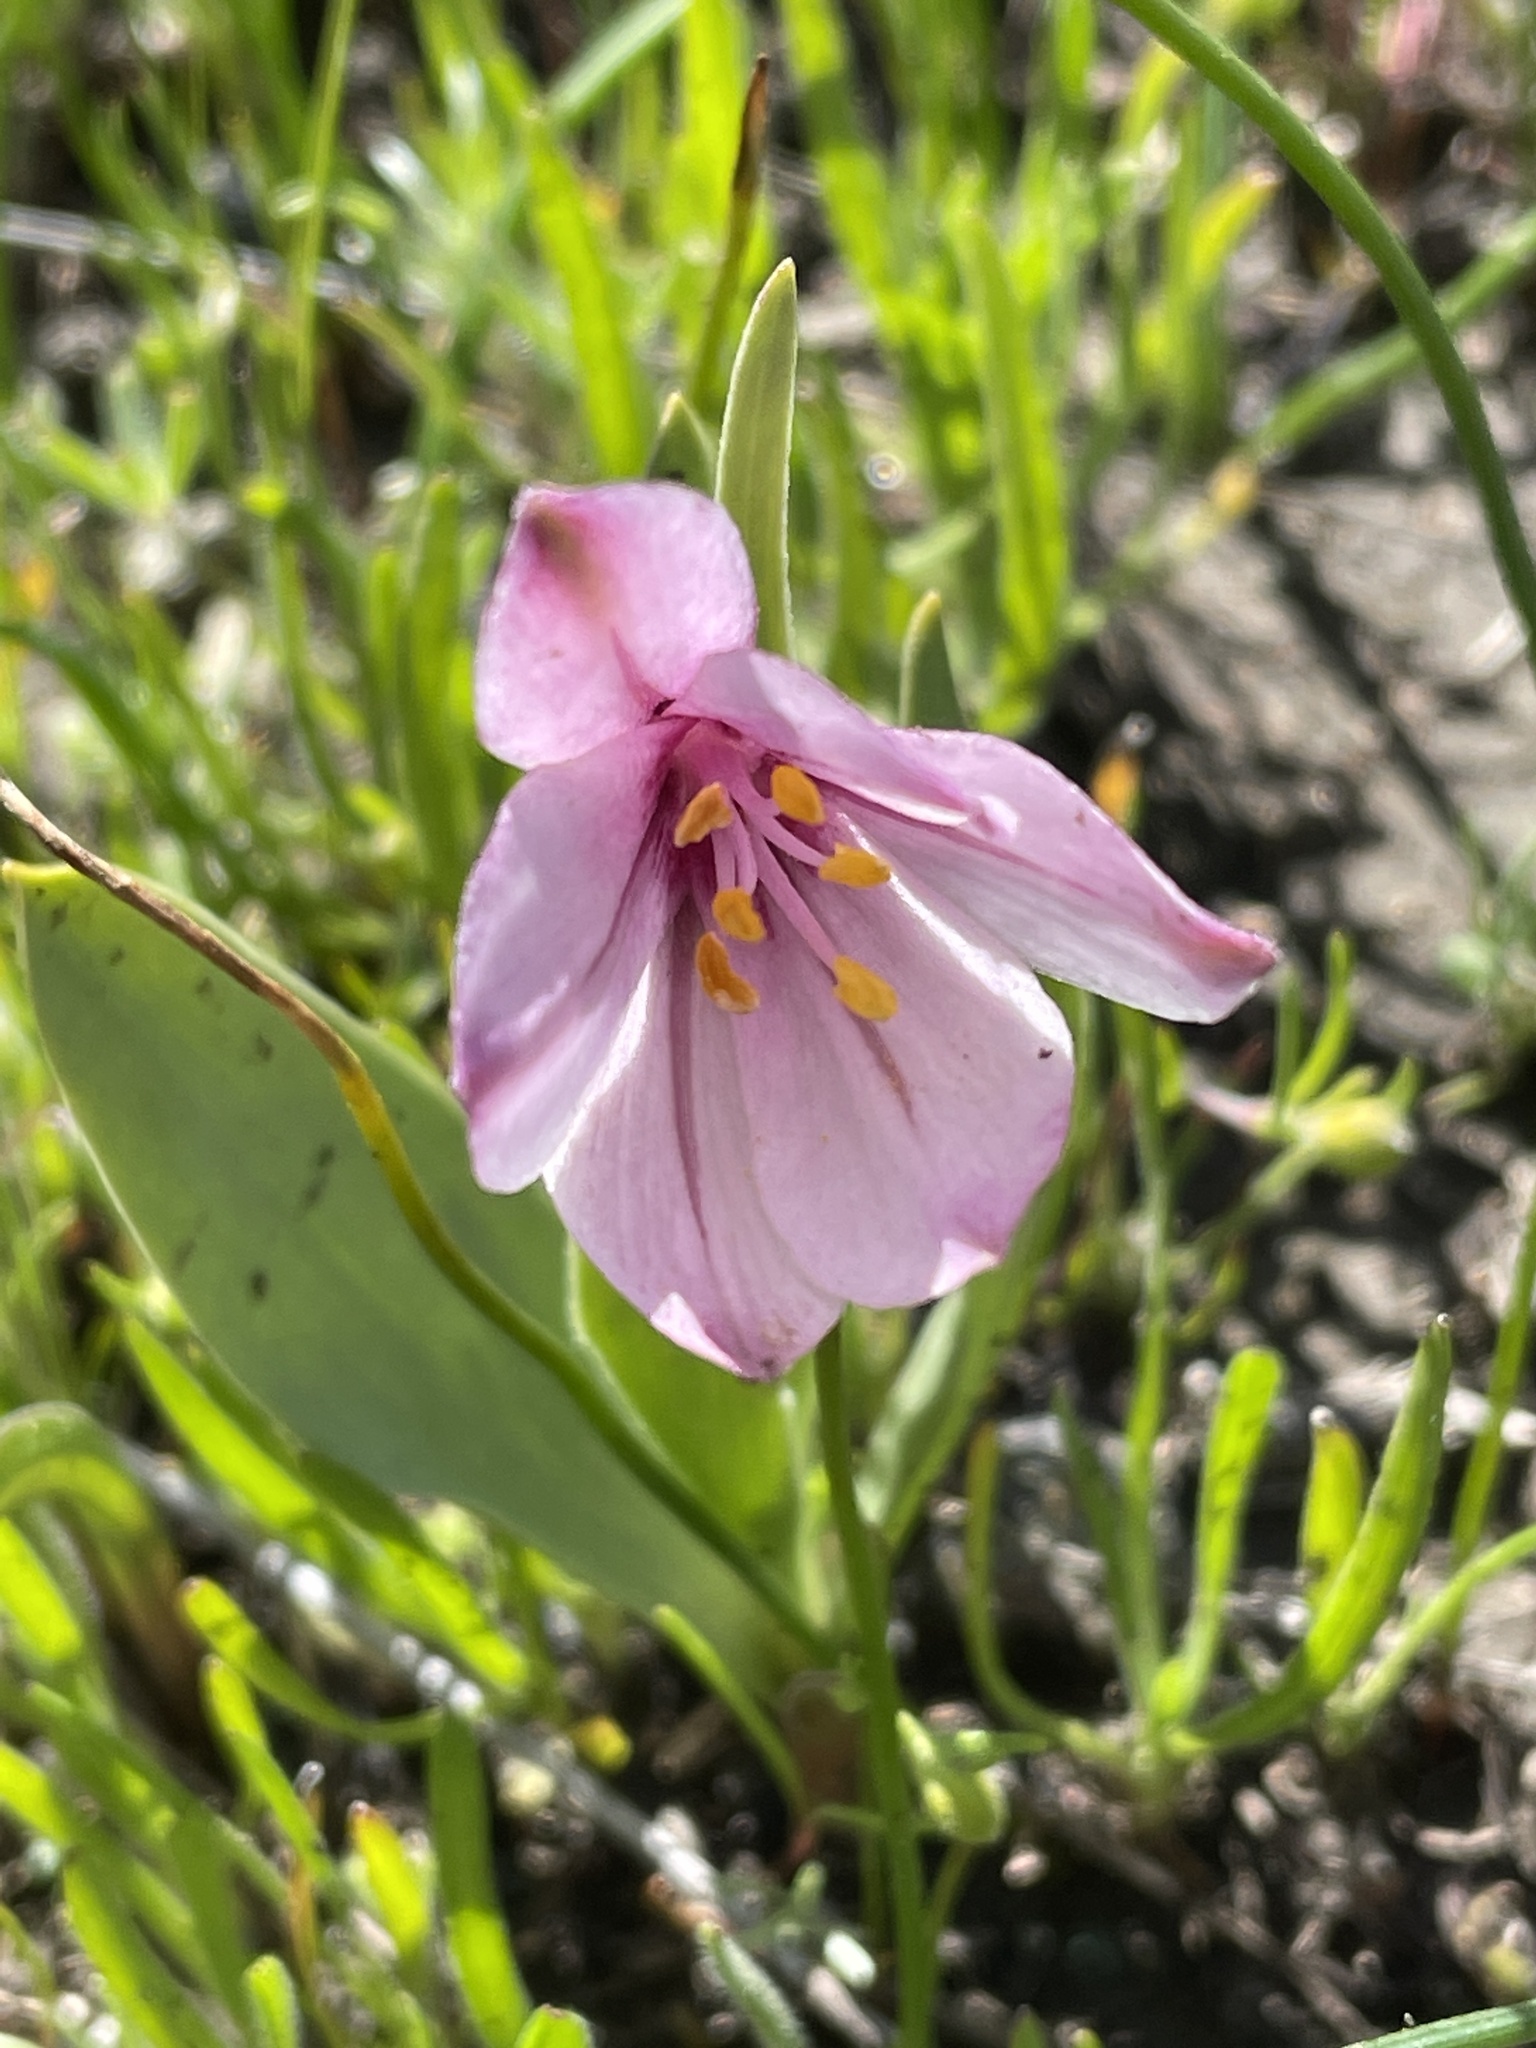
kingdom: Plantae
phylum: Tracheophyta
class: Liliopsida
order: Liliales
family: Liliaceae
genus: Fritillaria
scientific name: Fritillaria pluriflora
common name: Adobe-lily
